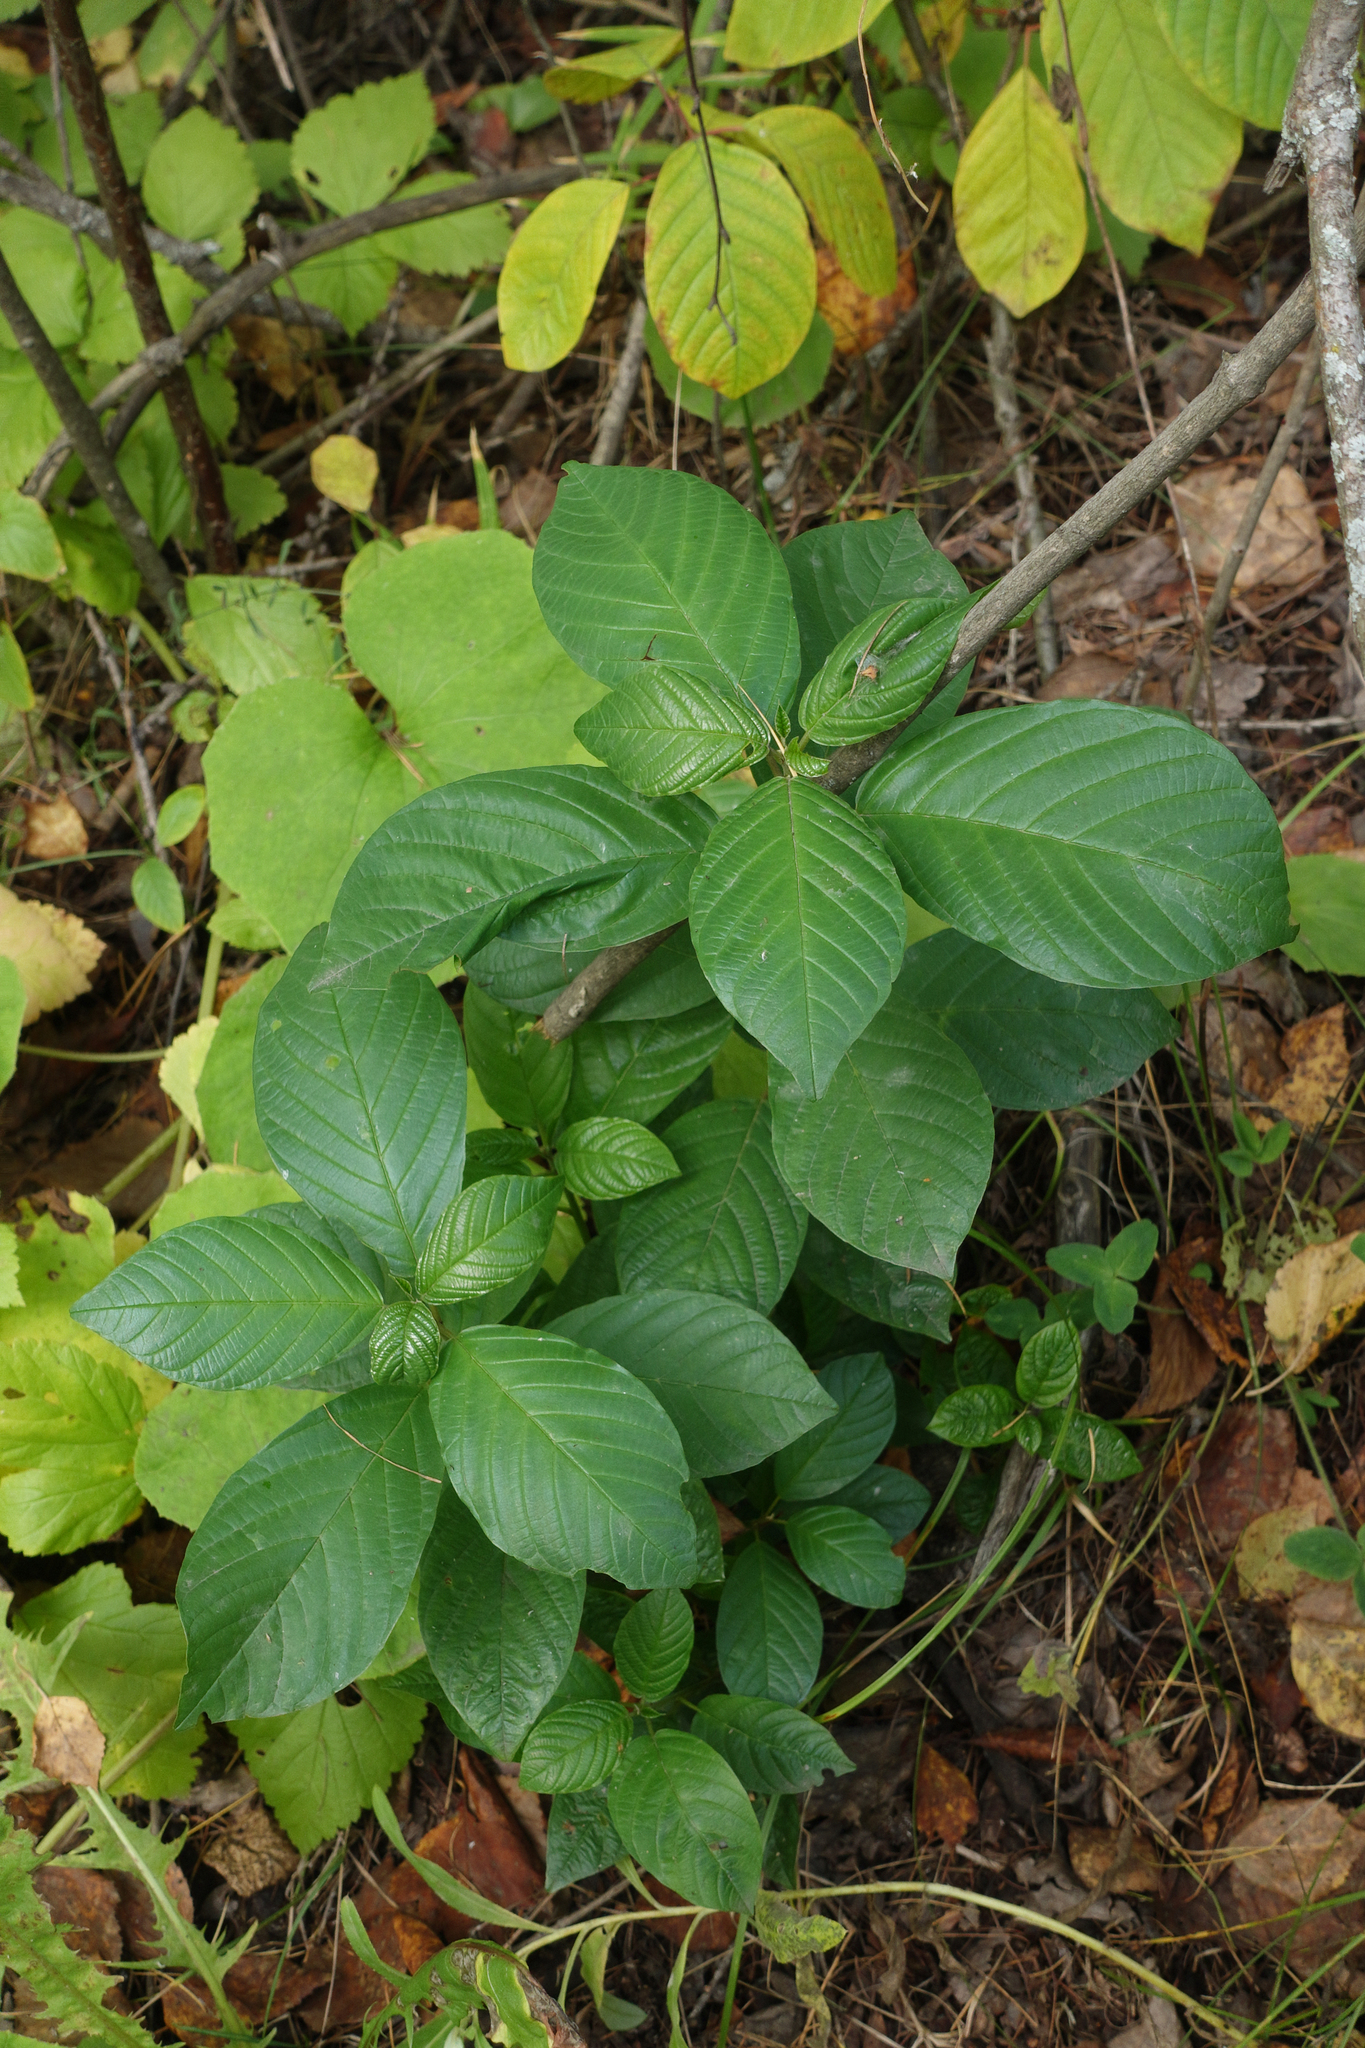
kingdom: Plantae
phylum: Tracheophyta
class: Magnoliopsida
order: Rosales
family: Rhamnaceae
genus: Frangula
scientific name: Frangula alnus
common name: Alder buckthorn
